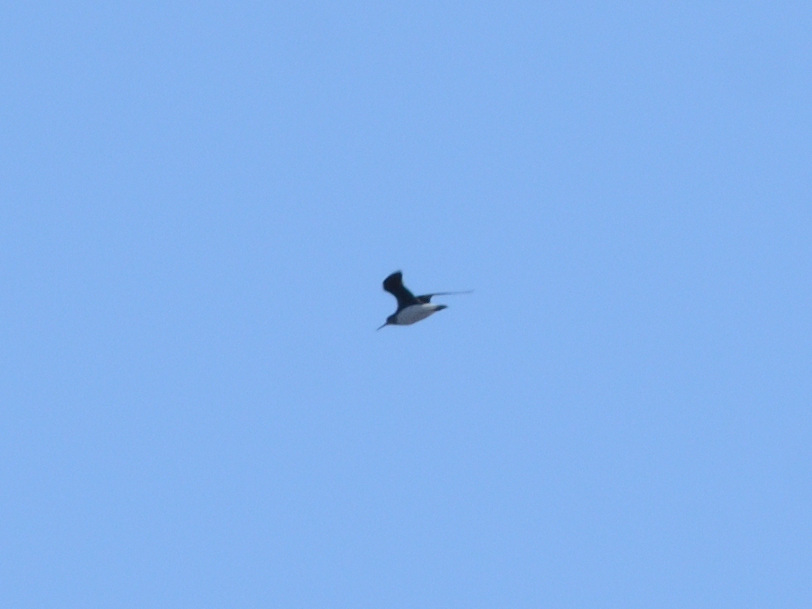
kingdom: Animalia
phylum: Chordata
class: Aves
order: Charadriiformes
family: Scolopacidae
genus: Tringa
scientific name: Tringa ochropus
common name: Green sandpiper
